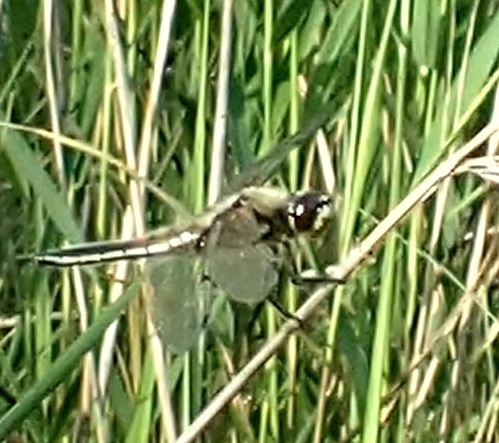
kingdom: Animalia
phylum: Arthropoda
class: Insecta
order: Odonata
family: Libellulidae
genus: Libellula
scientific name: Libellula quadrimaculata
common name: Four-spotted chaser
